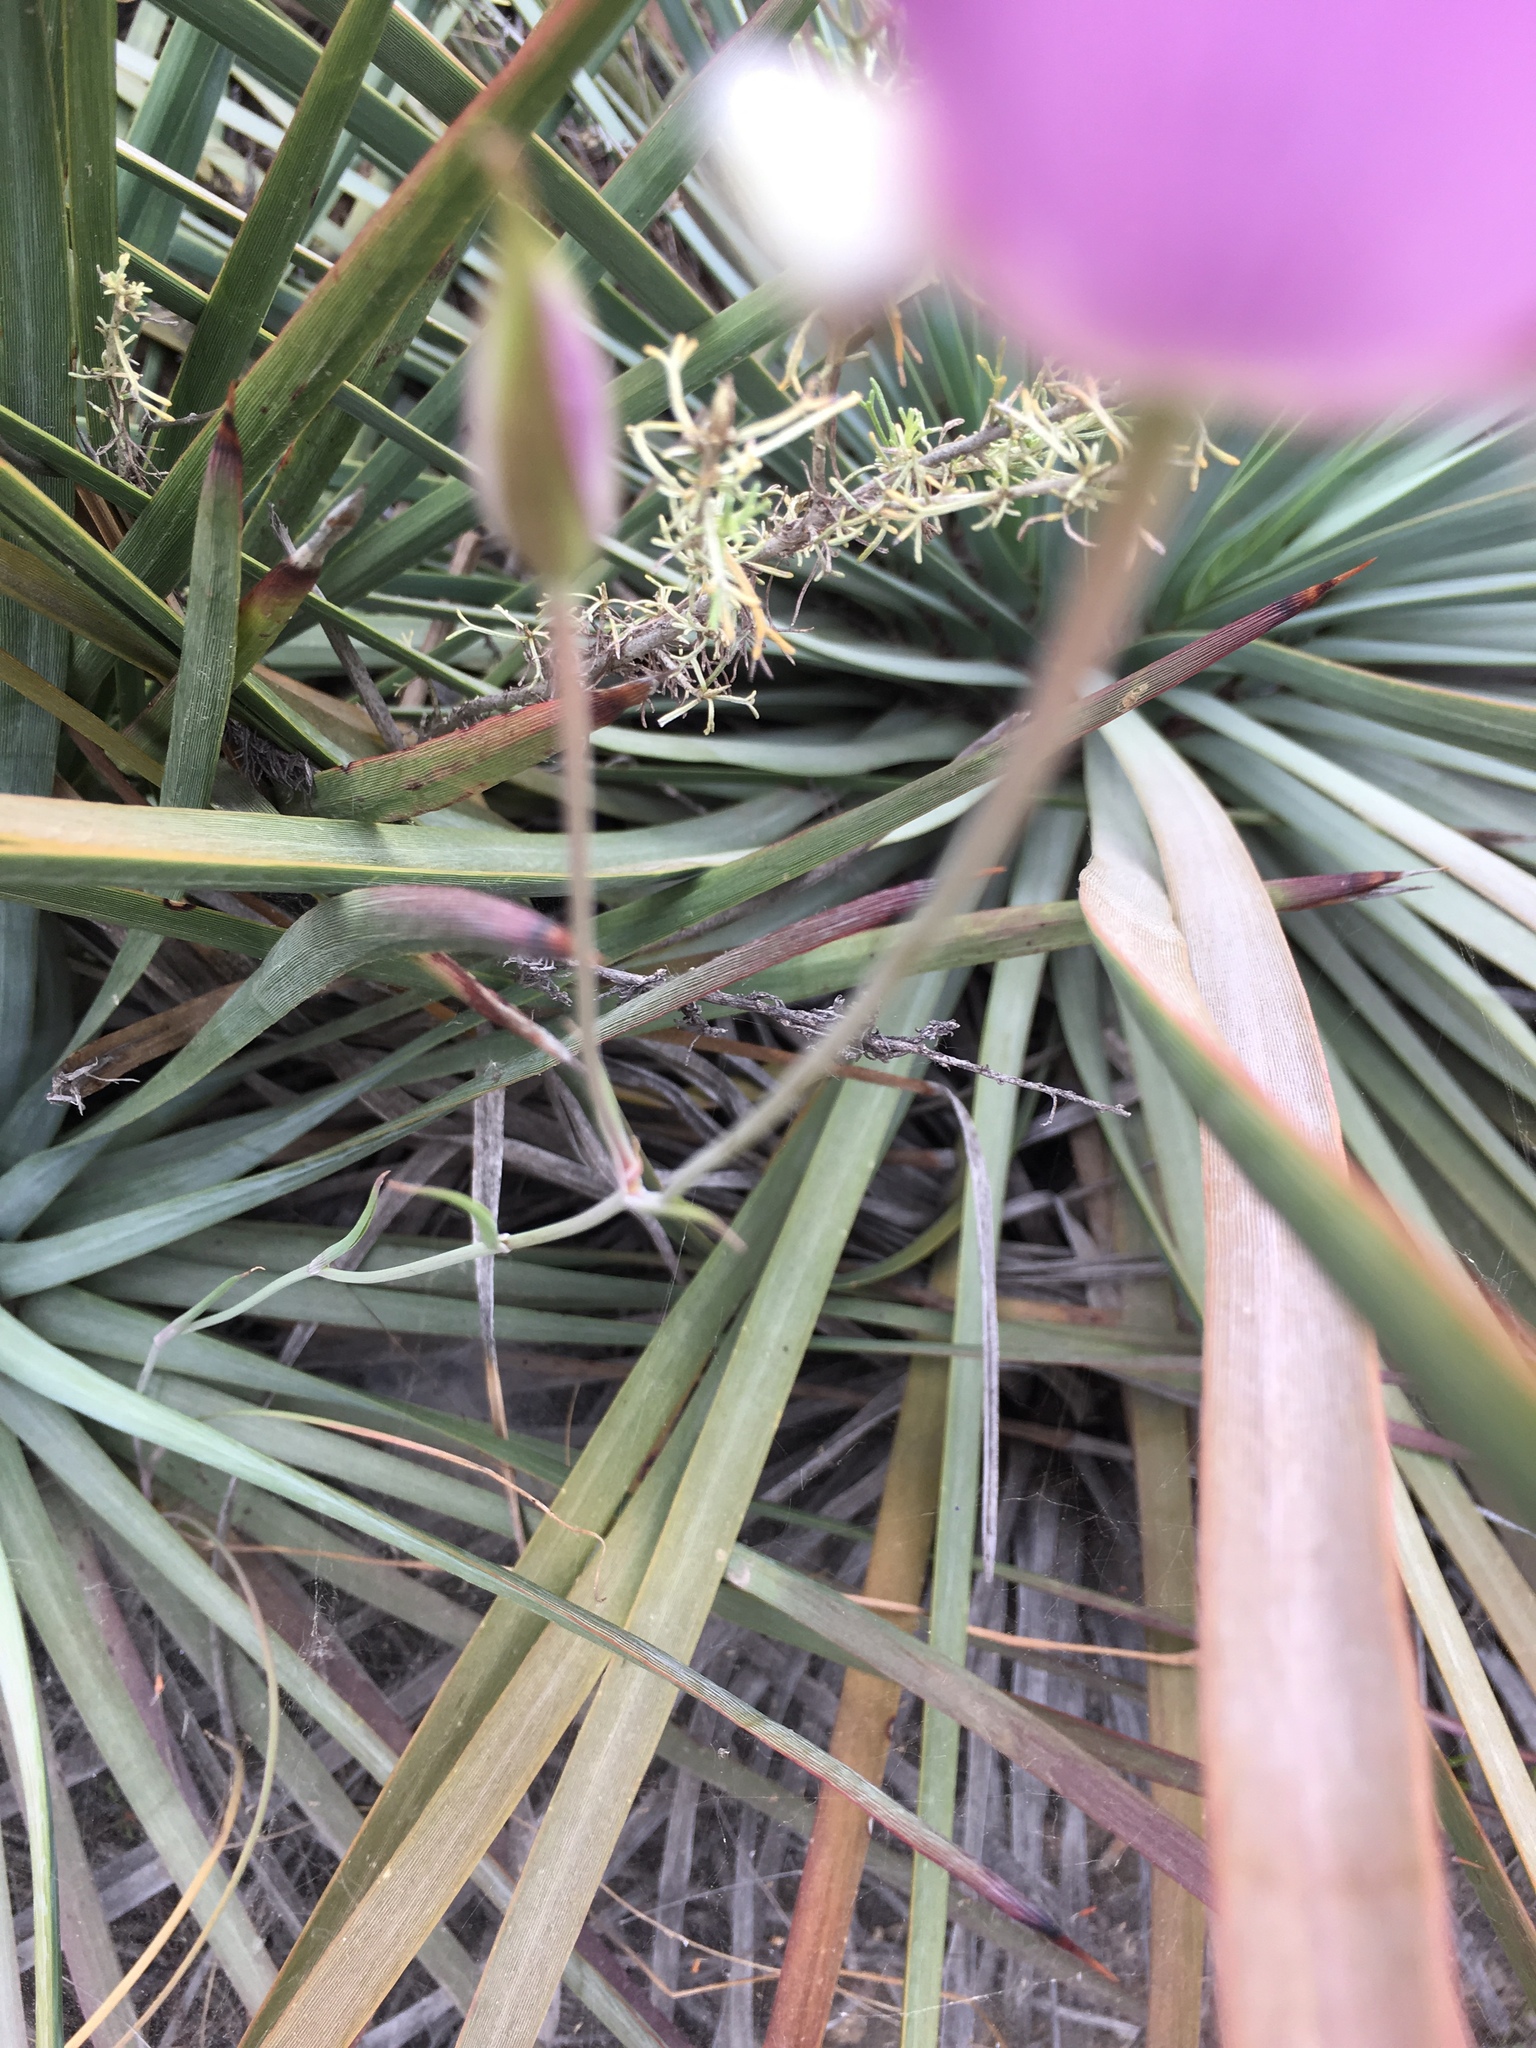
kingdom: Plantae
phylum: Tracheophyta
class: Liliopsida
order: Liliales
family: Liliaceae
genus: Calochortus
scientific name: Calochortus splendens
